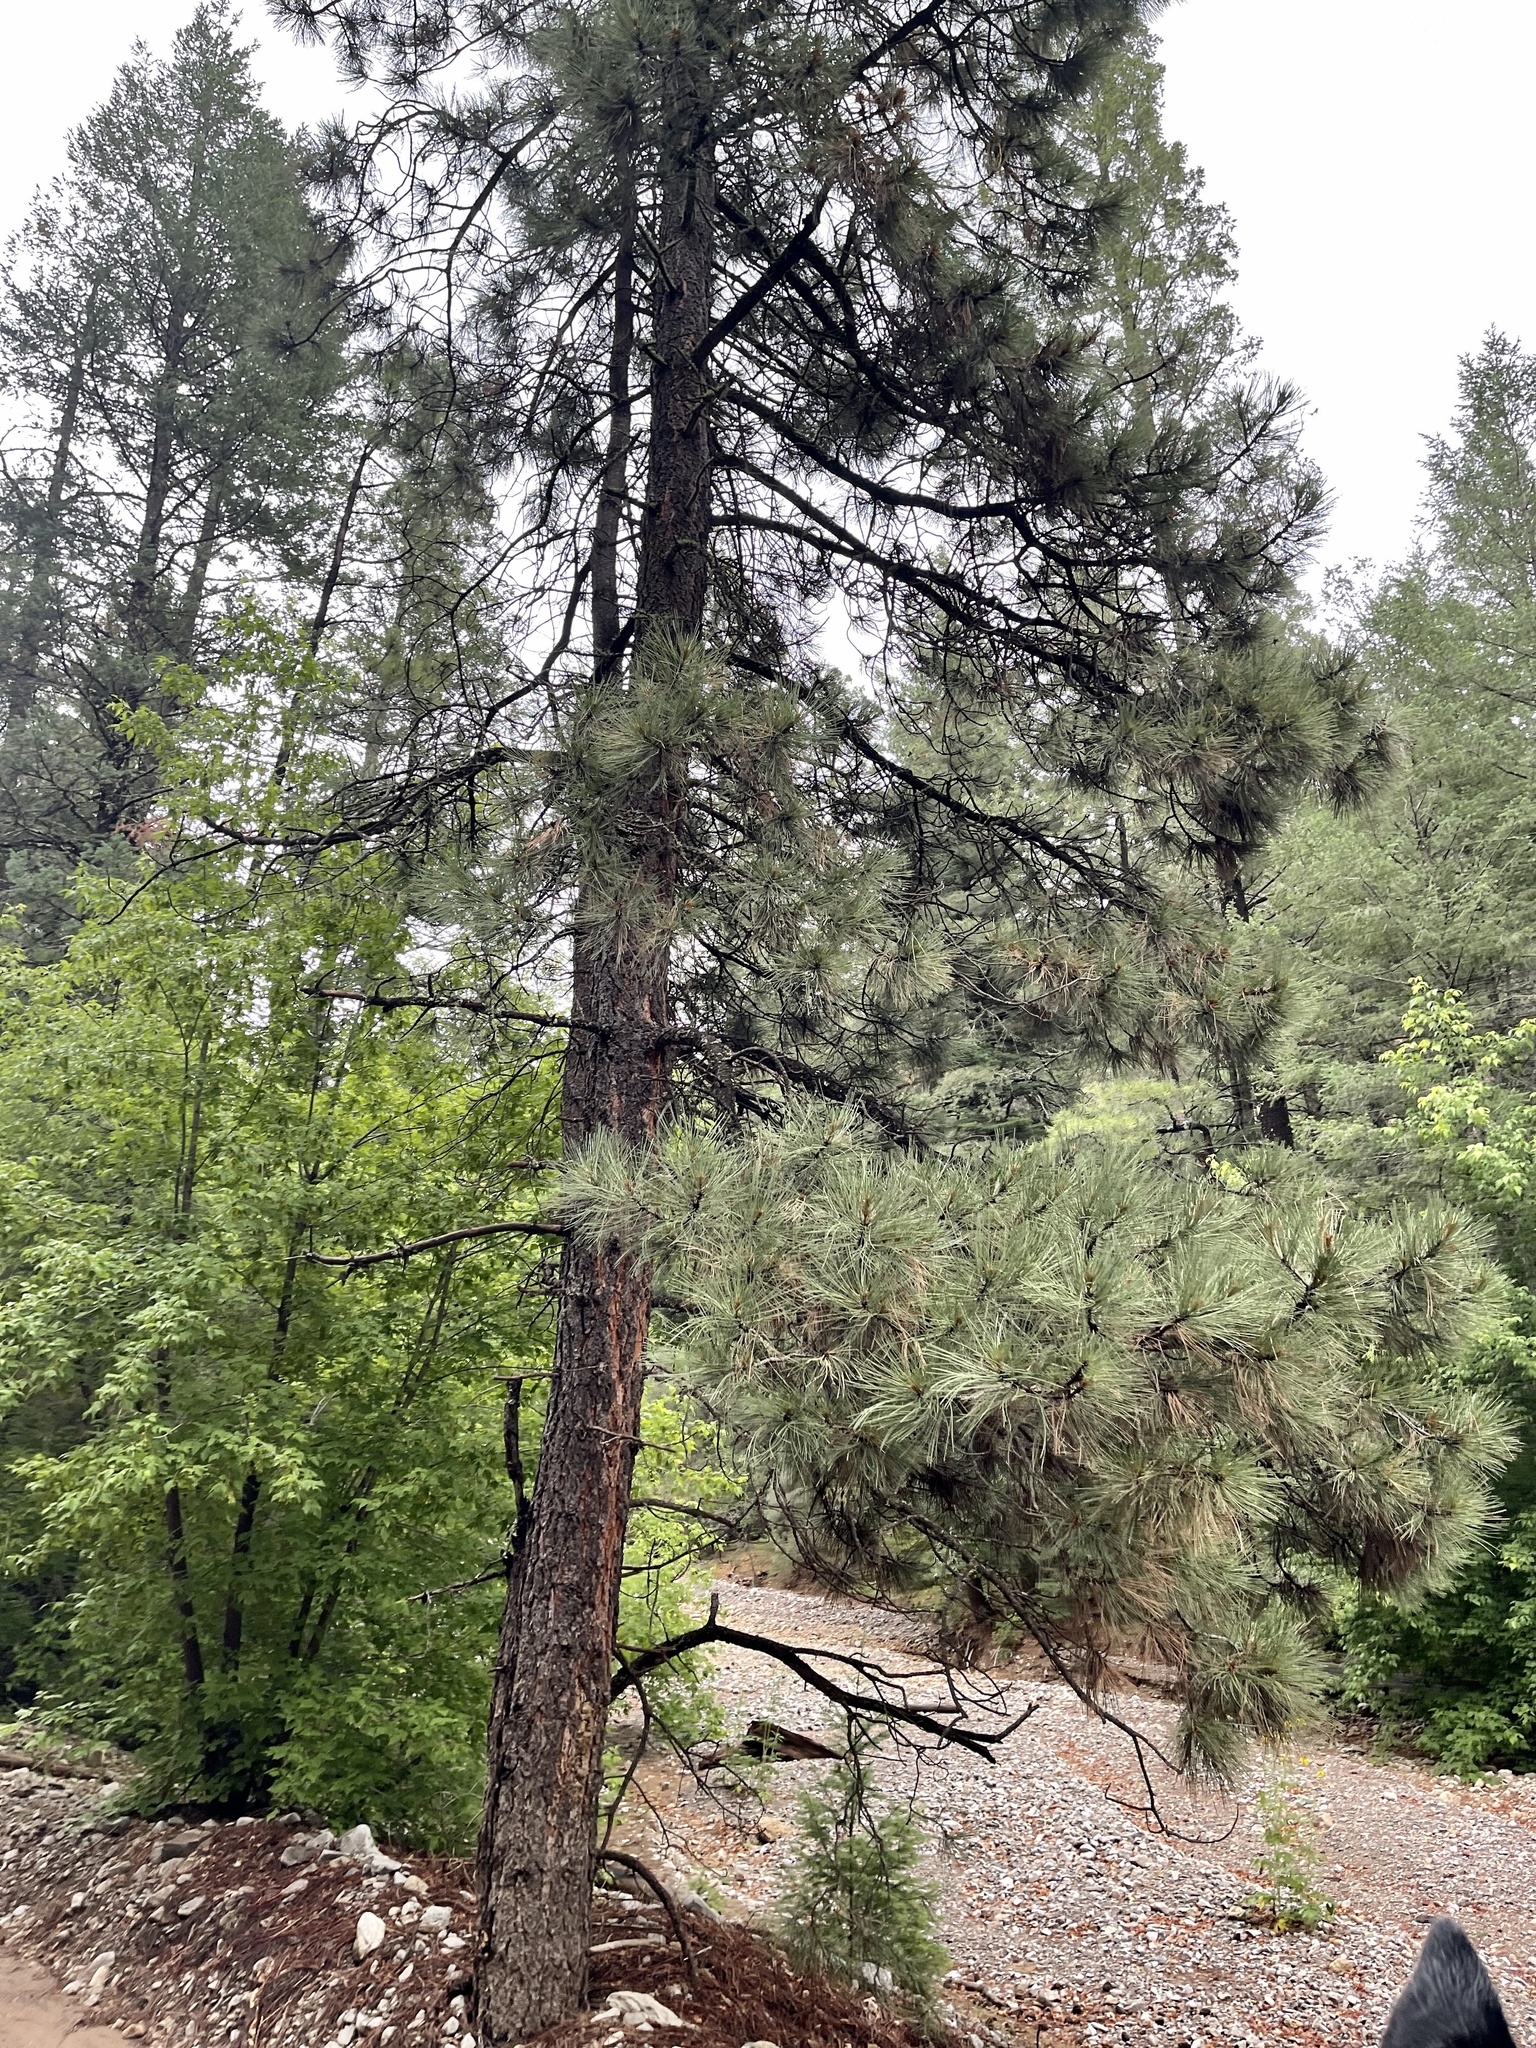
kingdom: Plantae
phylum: Tracheophyta
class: Pinopsida
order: Pinales
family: Pinaceae
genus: Pinus
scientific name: Pinus ponderosa
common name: Western yellow-pine
